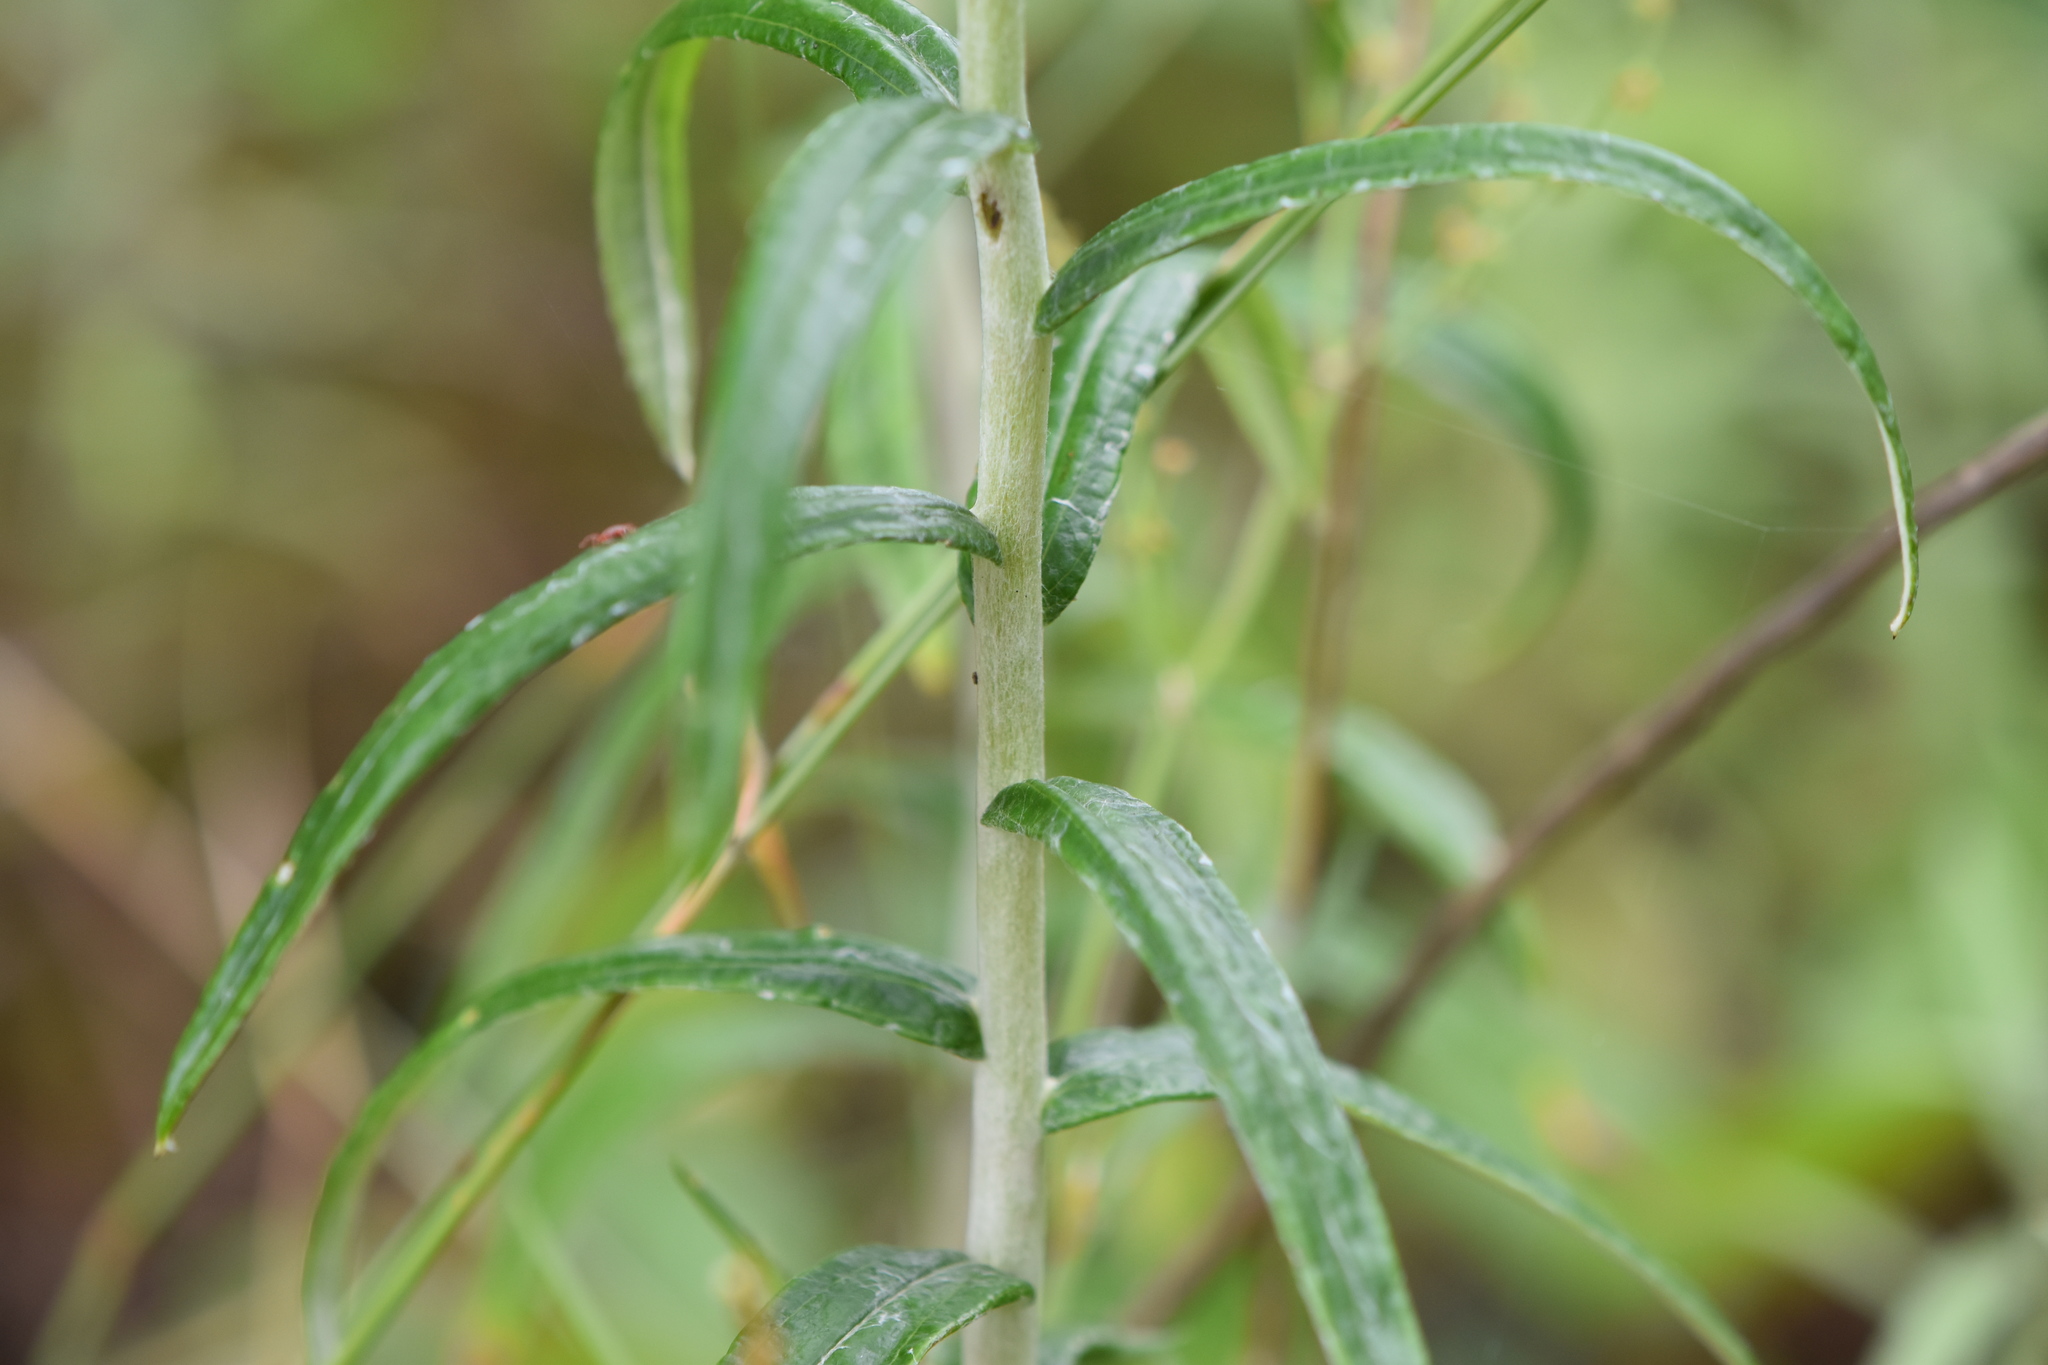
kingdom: Plantae
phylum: Tracheophyta
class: Magnoliopsida
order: Asterales
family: Asteraceae
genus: Anaphalis
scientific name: Anaphalis margaritacea
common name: Pearly everlasting
